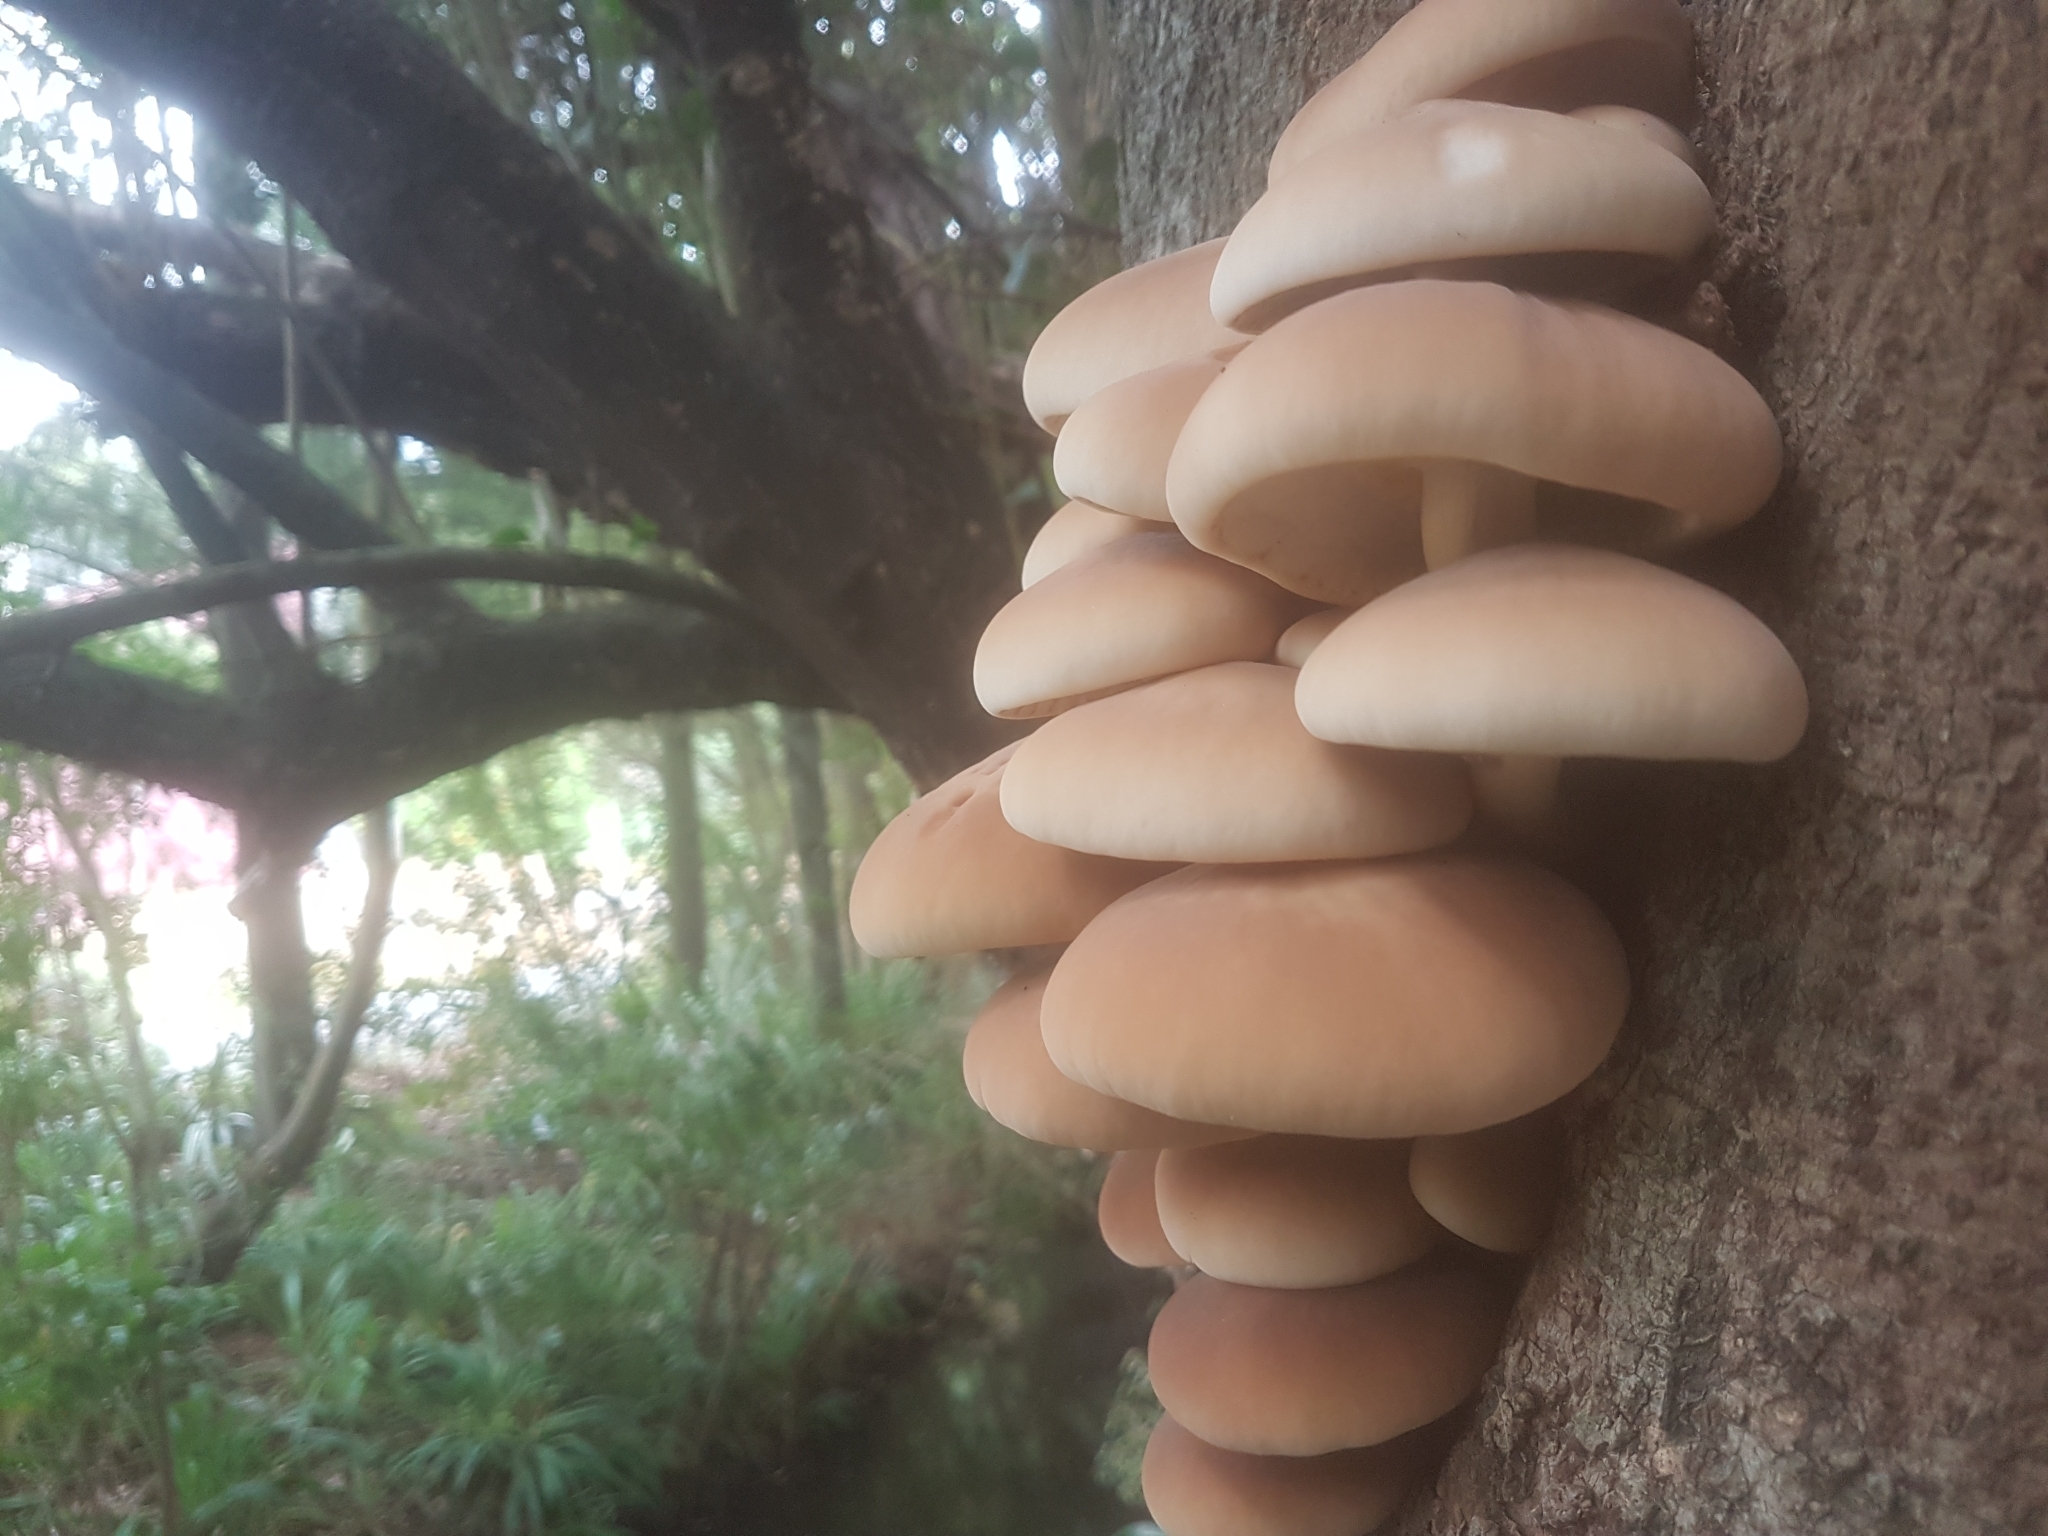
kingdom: Fungi
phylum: Basidiomycota
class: Agaricomycetes
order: Agaricales
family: Tubariaceae
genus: Cyclocybe
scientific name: Cyclocybe parasitica
